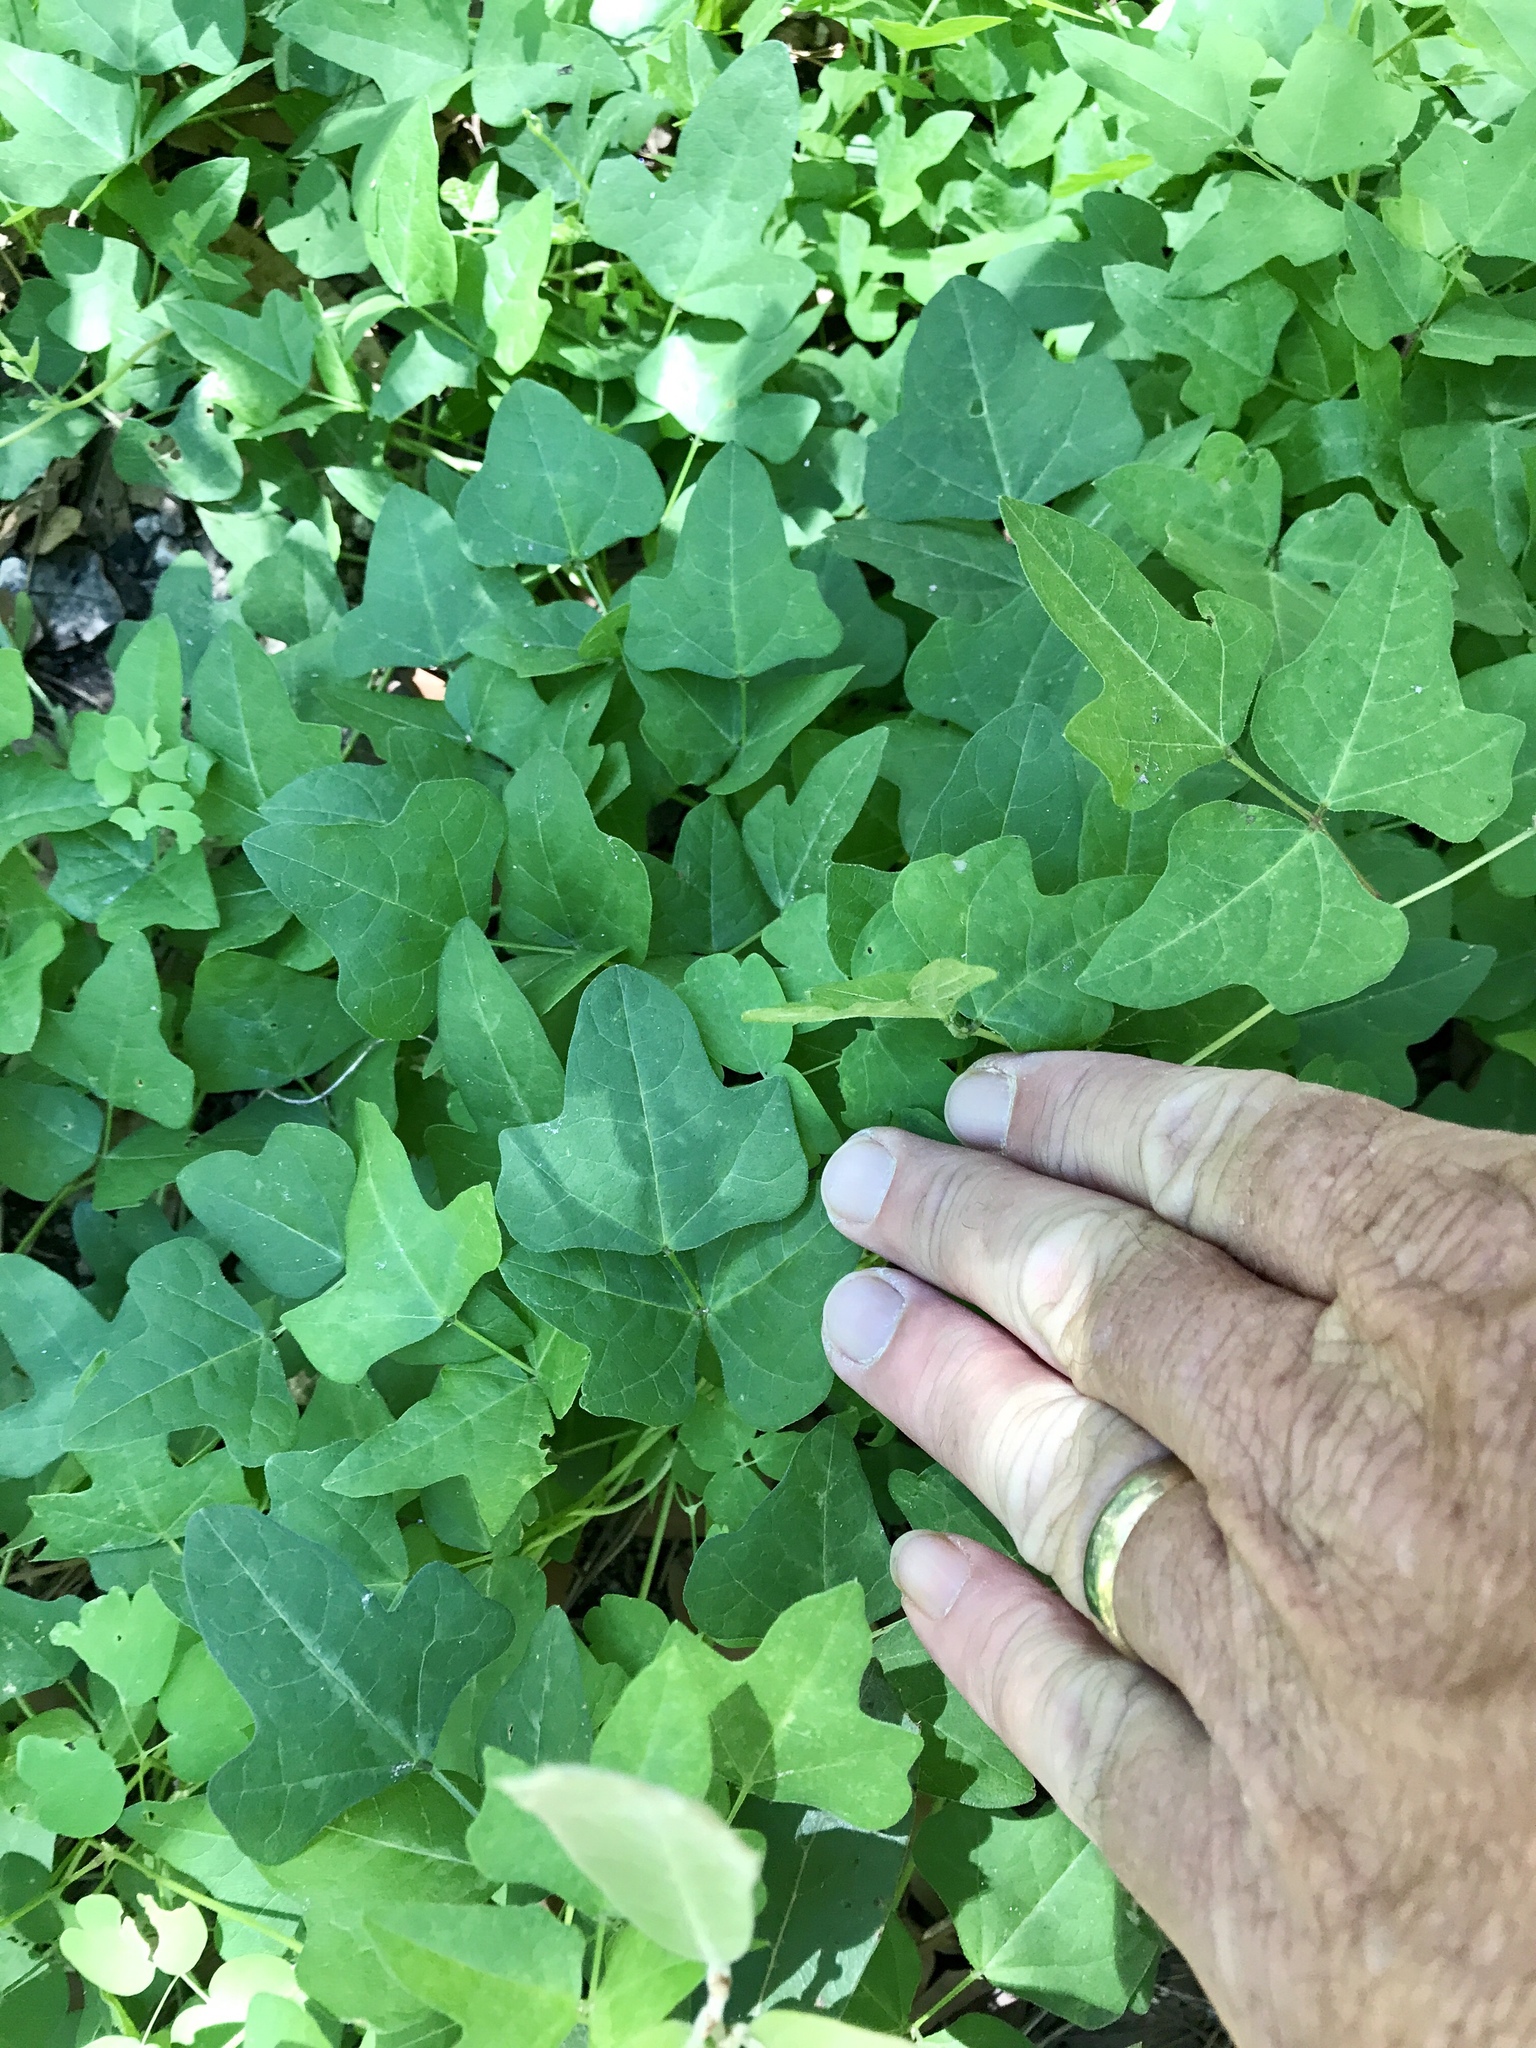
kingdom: Plantae
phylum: Tracheophyta
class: Magnoliopsida
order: Fabales
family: Fabaceae
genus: Phaseolus
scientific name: Phaseolus pedicellatus
